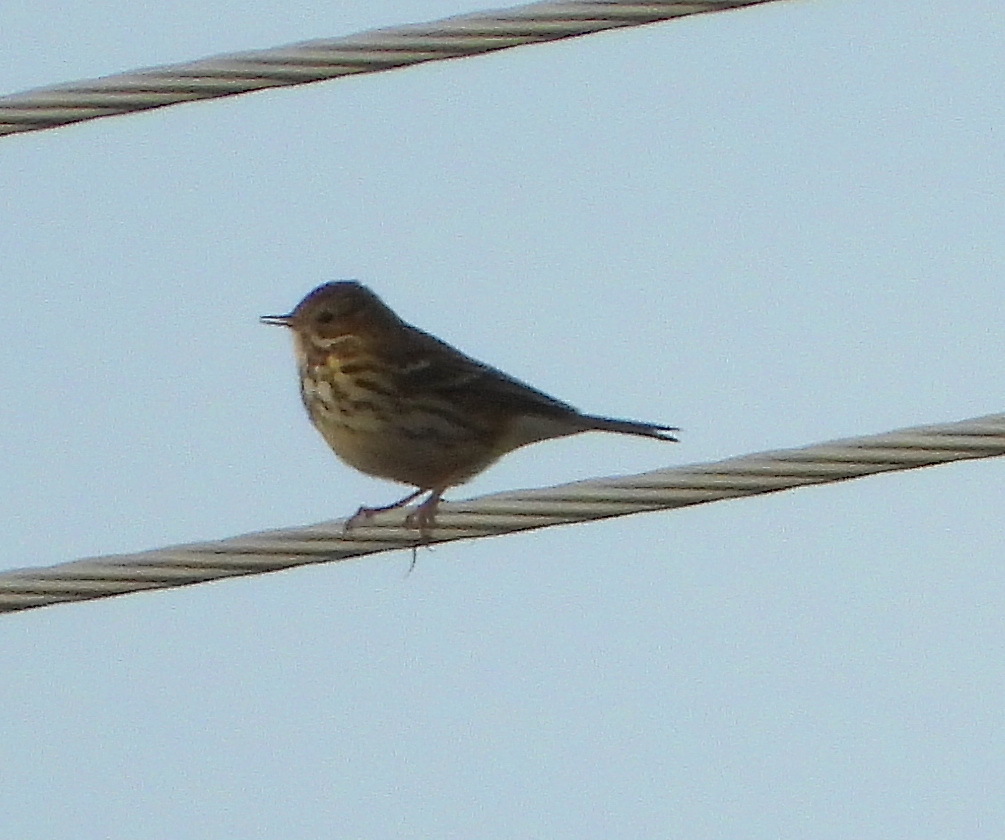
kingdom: Animalia
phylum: Chordata
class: Aves
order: Passeriformes
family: Motacillidae
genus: Anthus
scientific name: Anthus pratensis
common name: Meadow pipit
